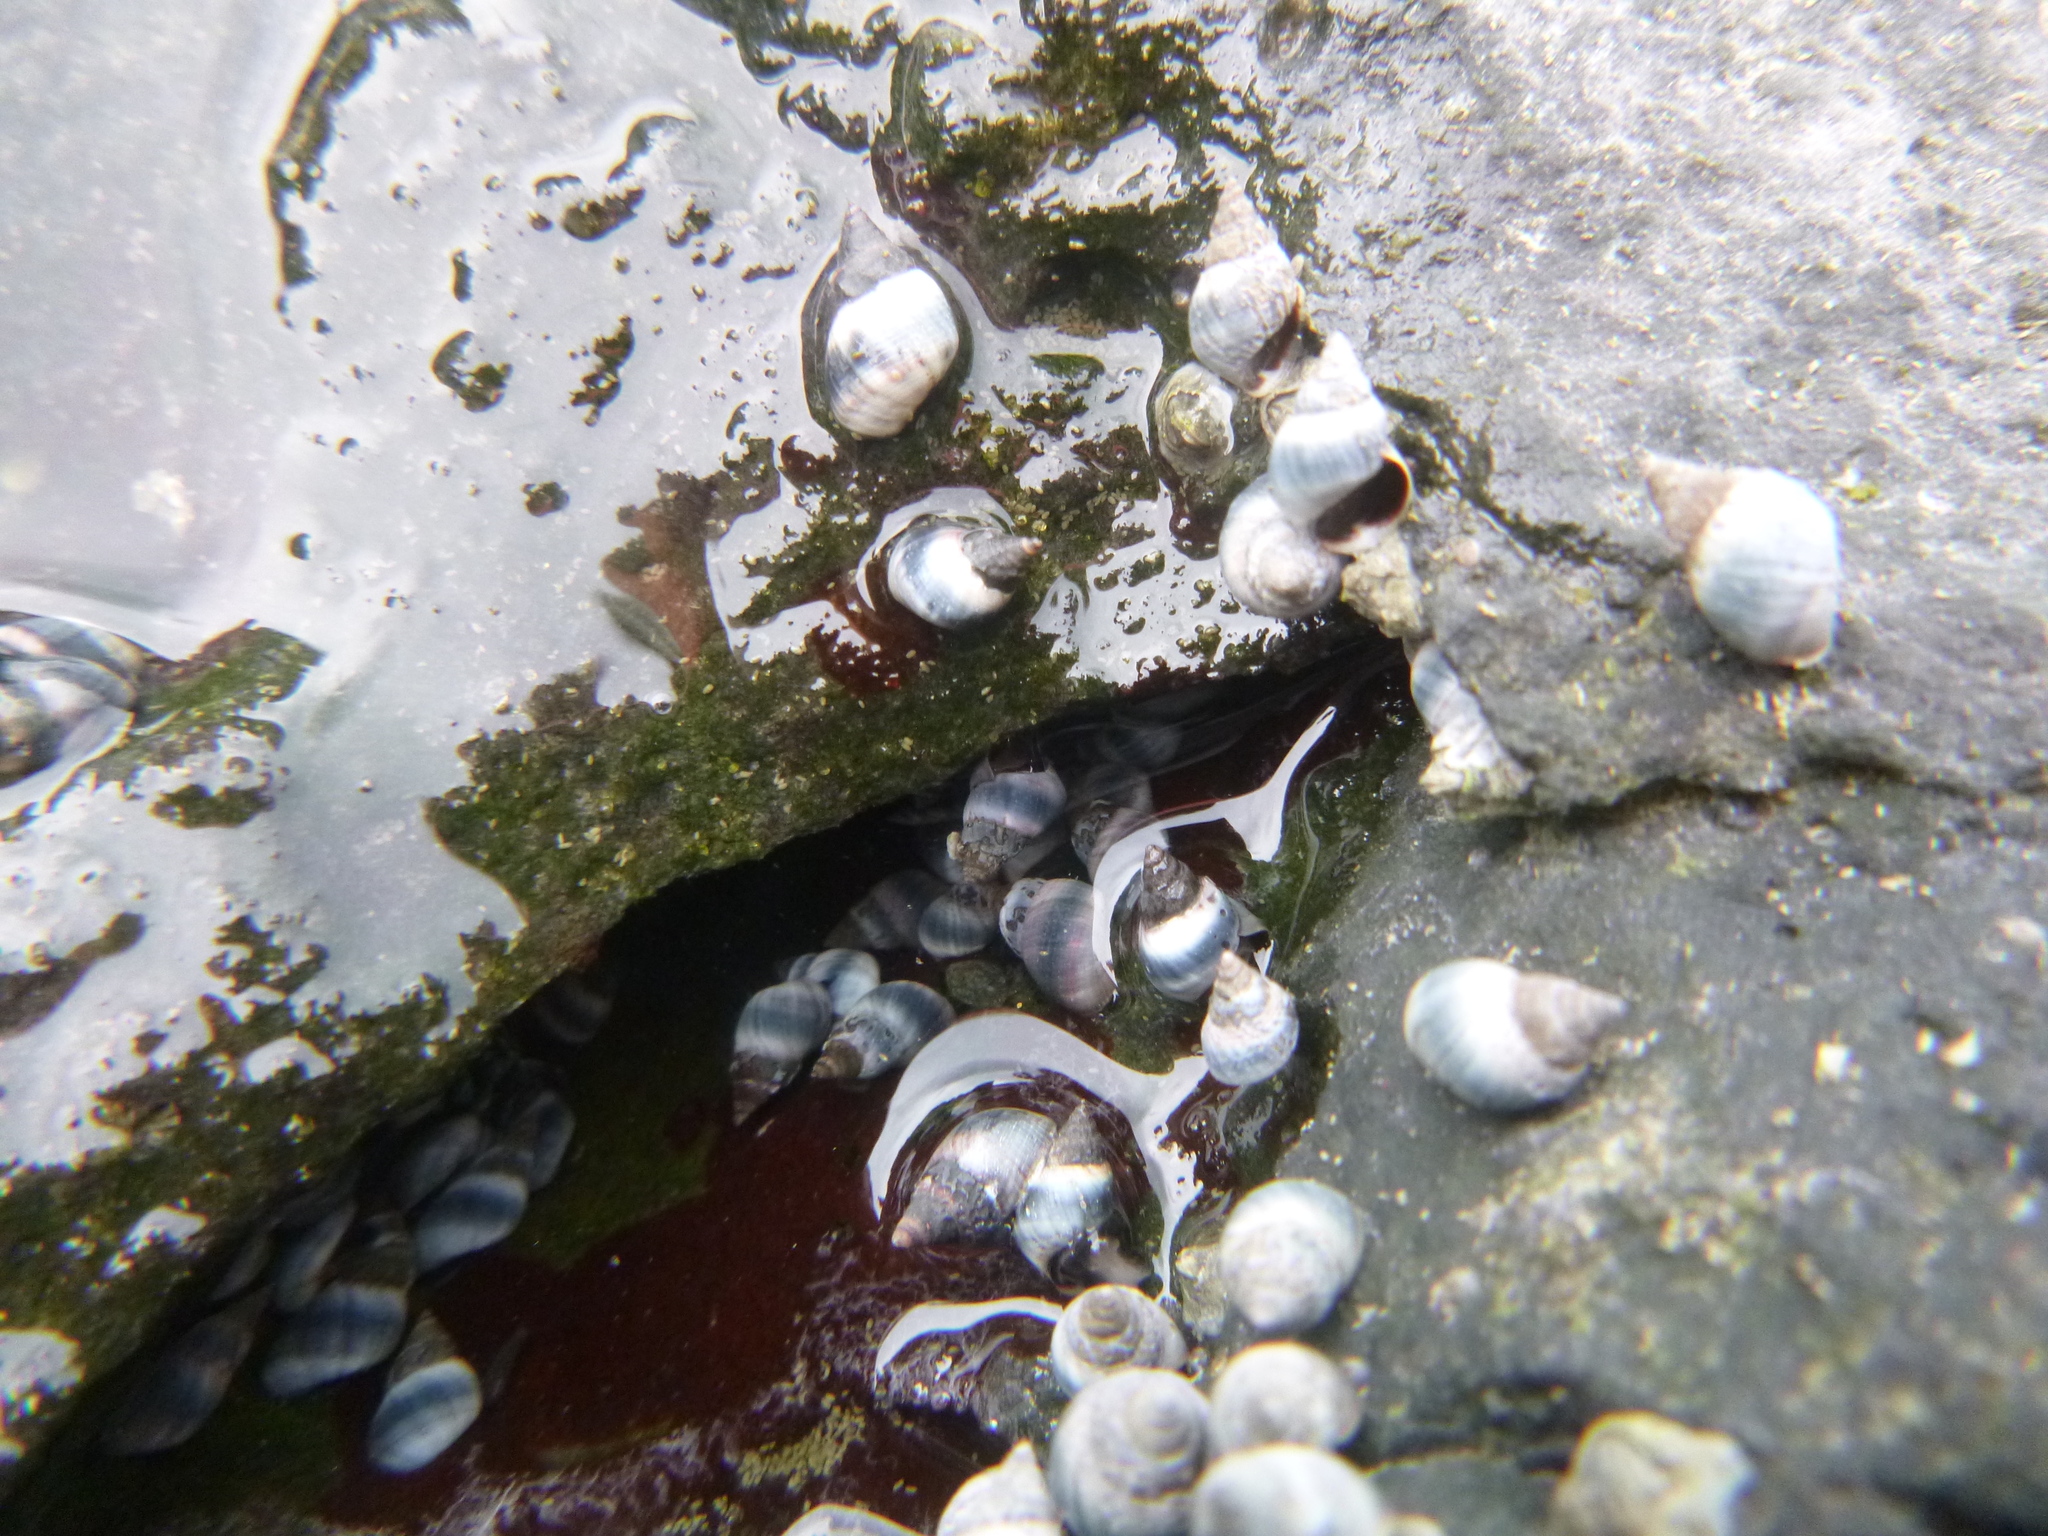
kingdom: Animalia
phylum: Mollusca
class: Gastropoda
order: Littorinimorpha
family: Littorinidae
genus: Austrolittorina
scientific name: Austrolittorina antipodum
